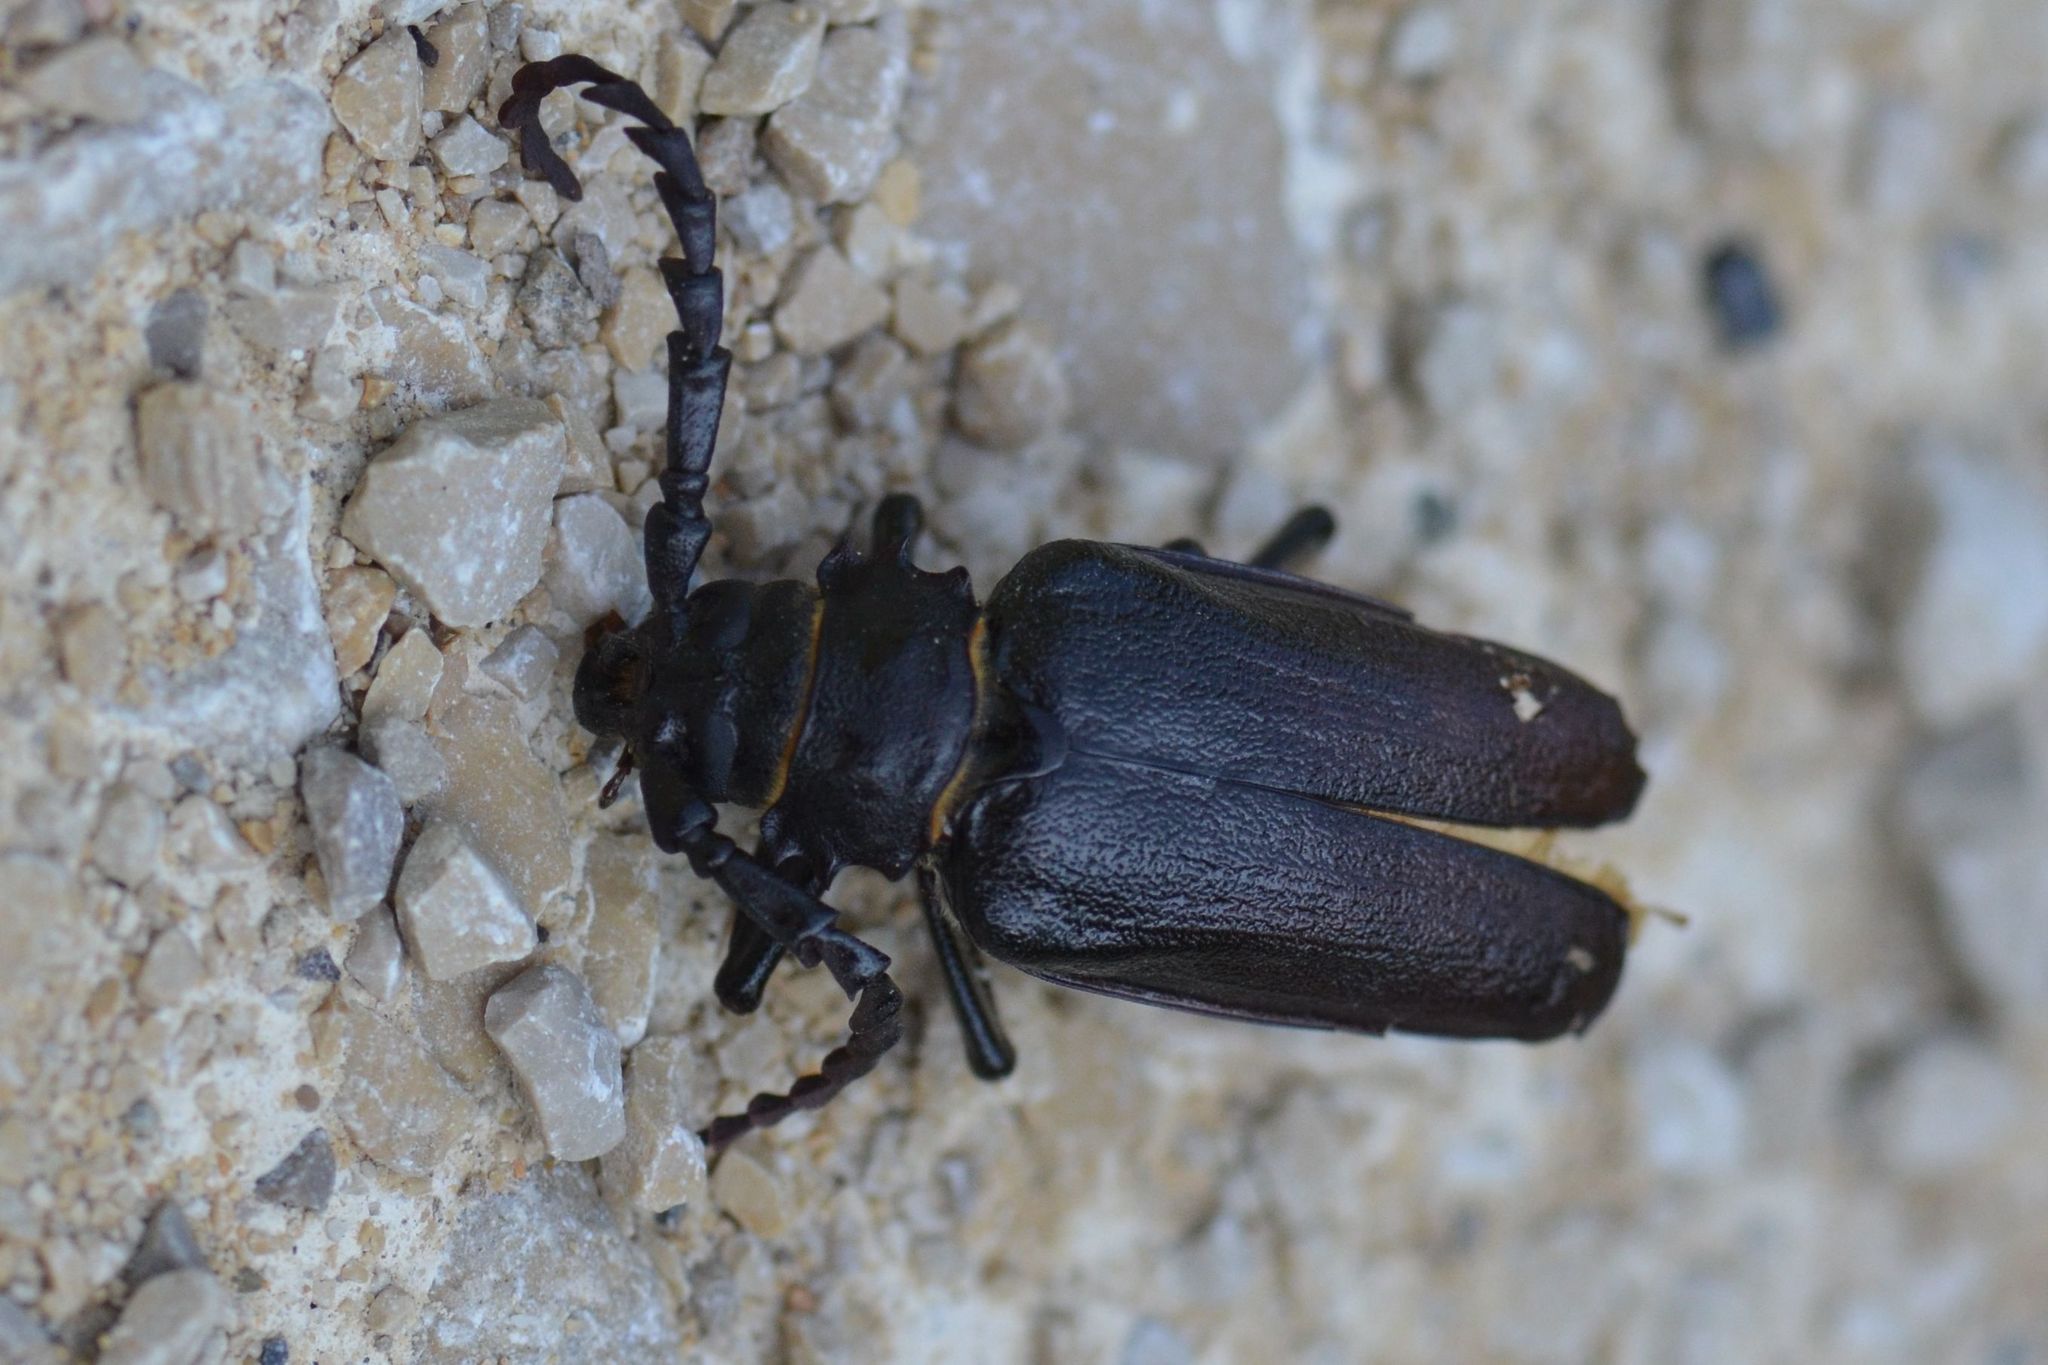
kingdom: Animalia
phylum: Arthropoda
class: Insecta
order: Coleoptera
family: Cerambycidae
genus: Prionus
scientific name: Prionus coriarius
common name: Tanner beetle
